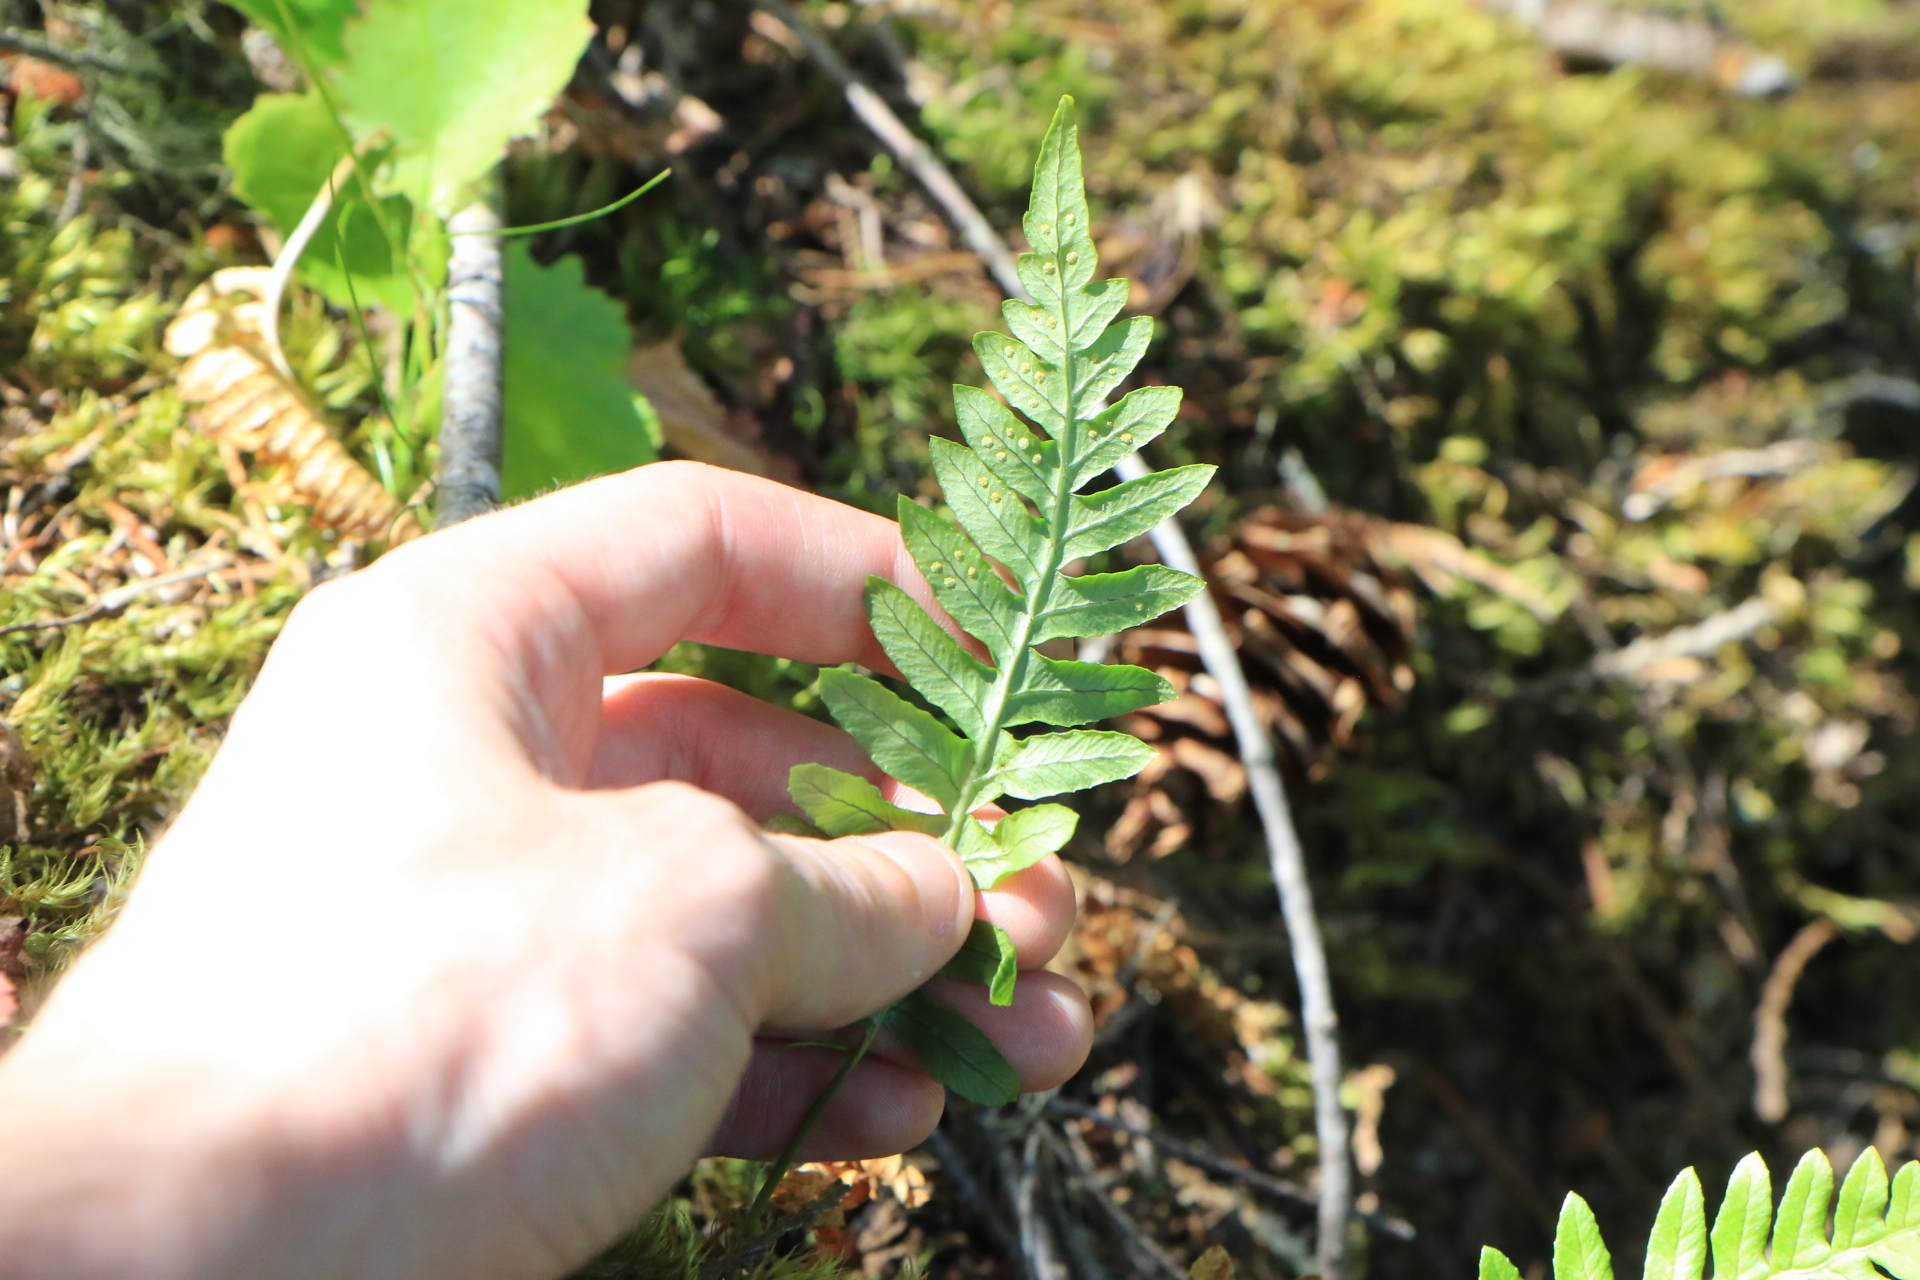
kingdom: Plantae
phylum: Tracheophyta
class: Polypodiopsida
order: Polypodiales
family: Polypodiaceae
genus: Polypodium
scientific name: Polypodium glycyrrhiza
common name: Licorice fern
